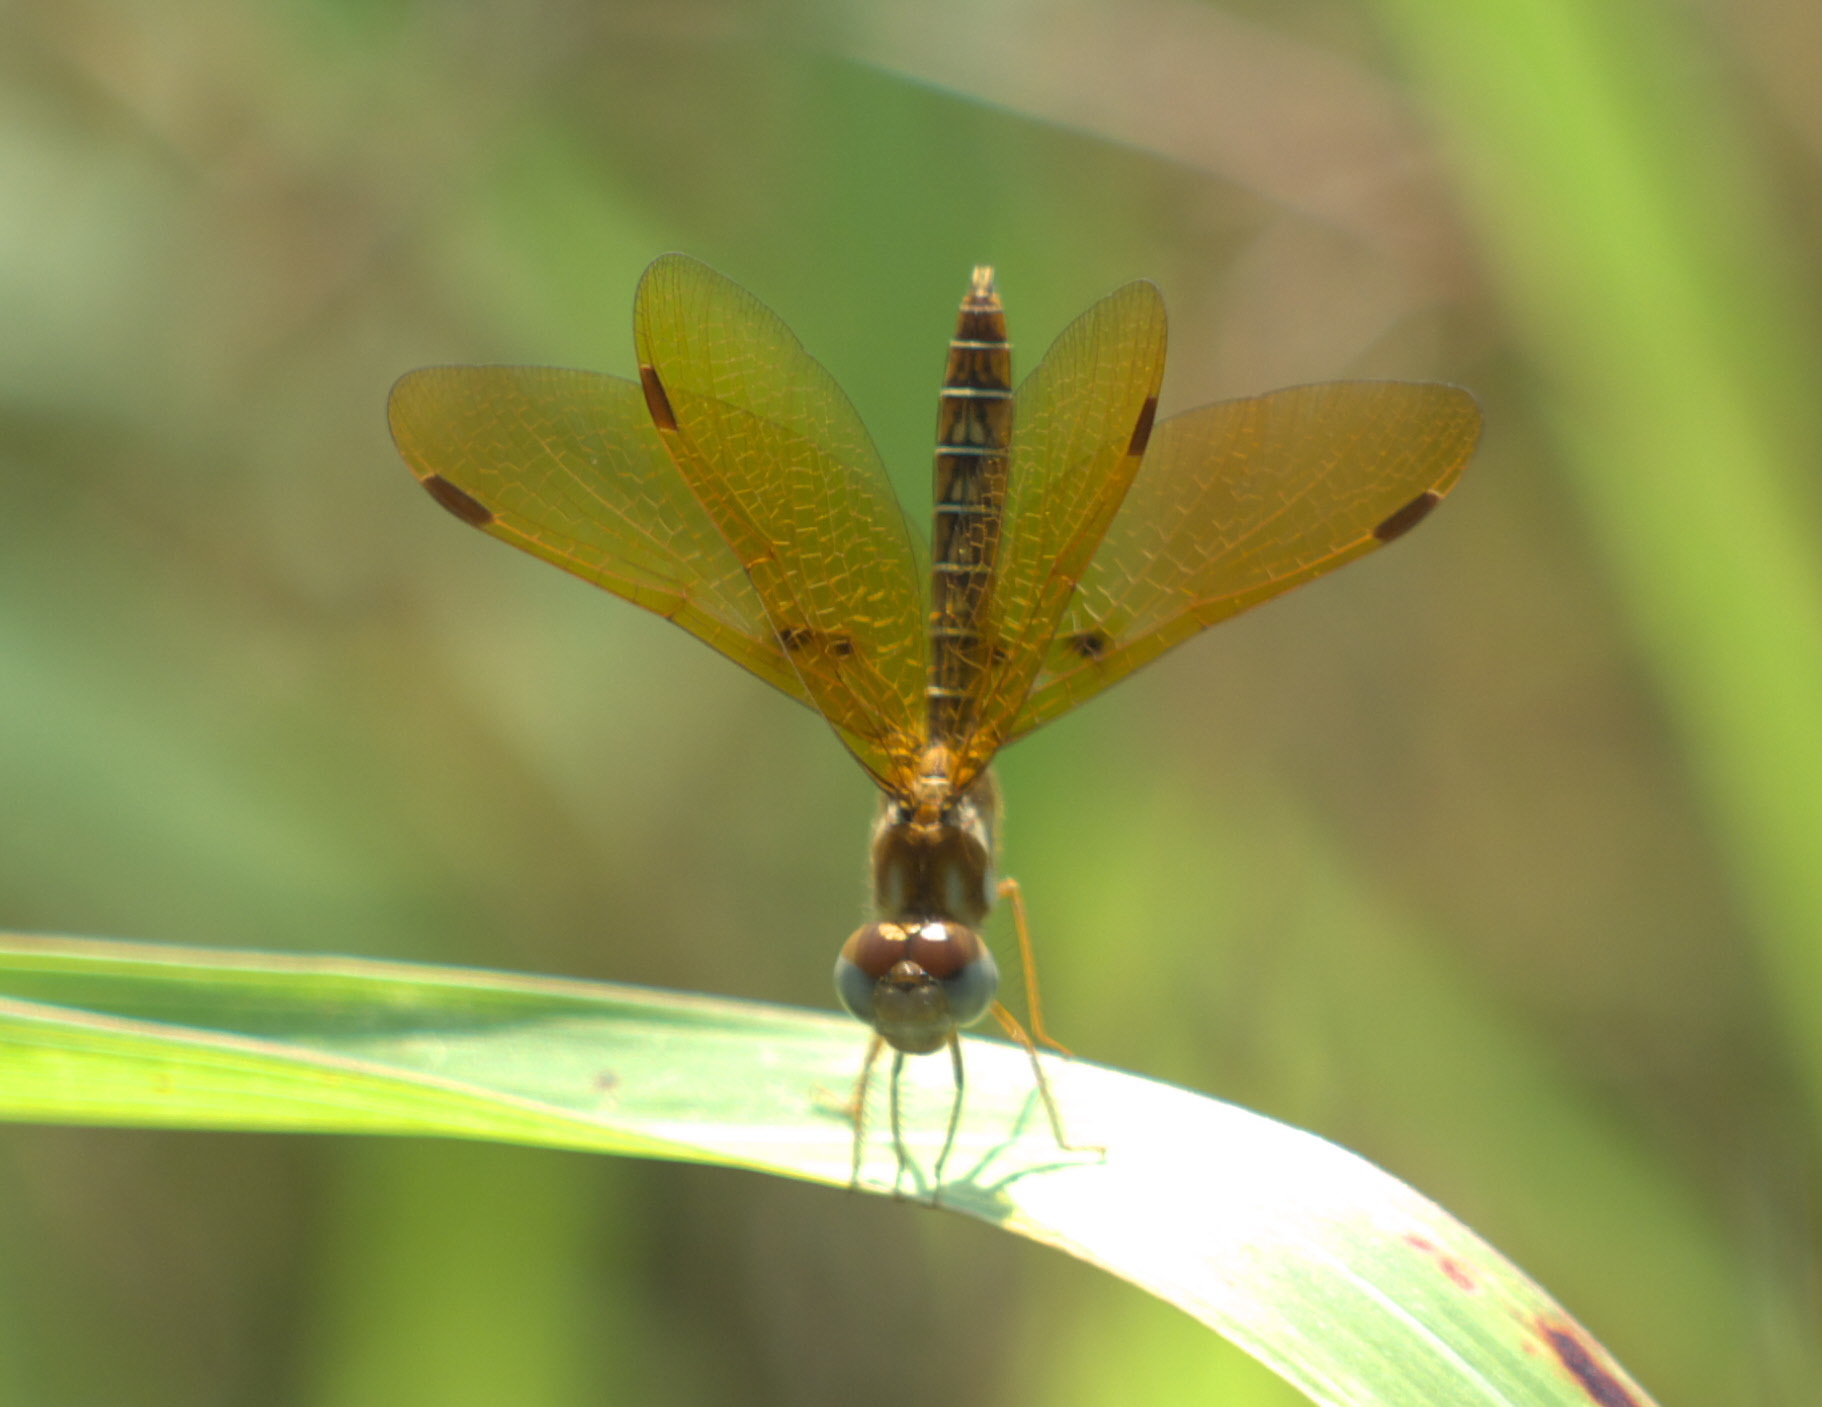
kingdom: Animalia
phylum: Arthropoda
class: Insecta
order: Odonata
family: Libellulidae
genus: Perithemis
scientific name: Perithemis tenera
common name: Eastern amberwing
